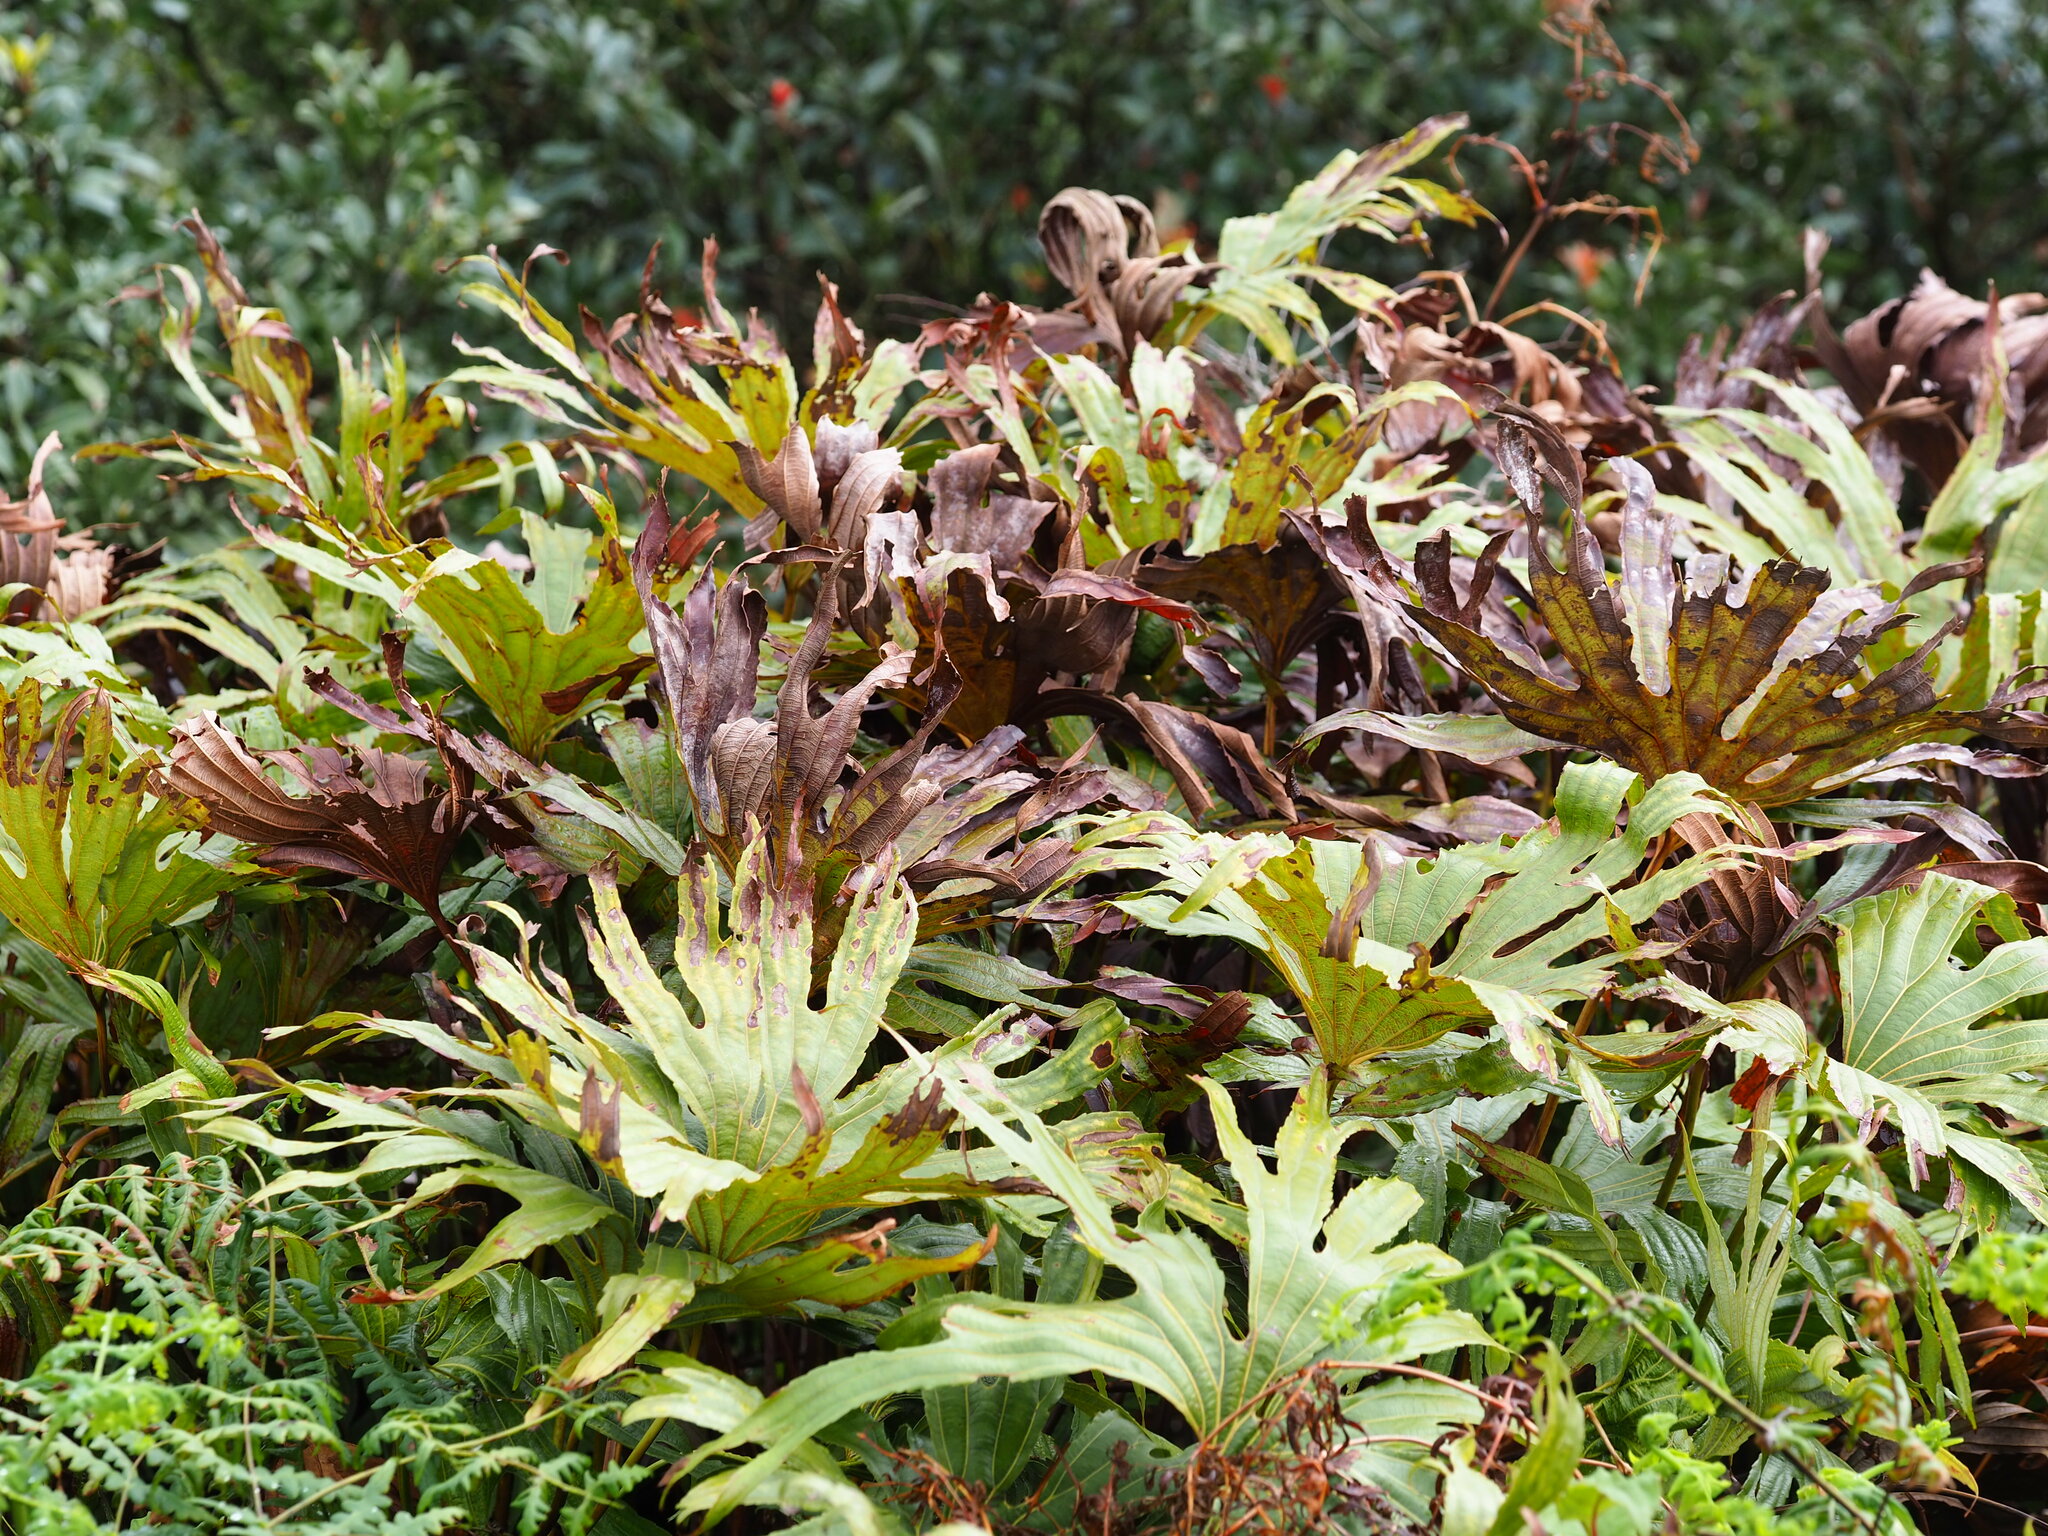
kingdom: Plantae
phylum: Tracheophyta
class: Polypodiopsida
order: Gleicheniales
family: Dipteridaceae
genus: Dipteris
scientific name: Dipteris conjugata
